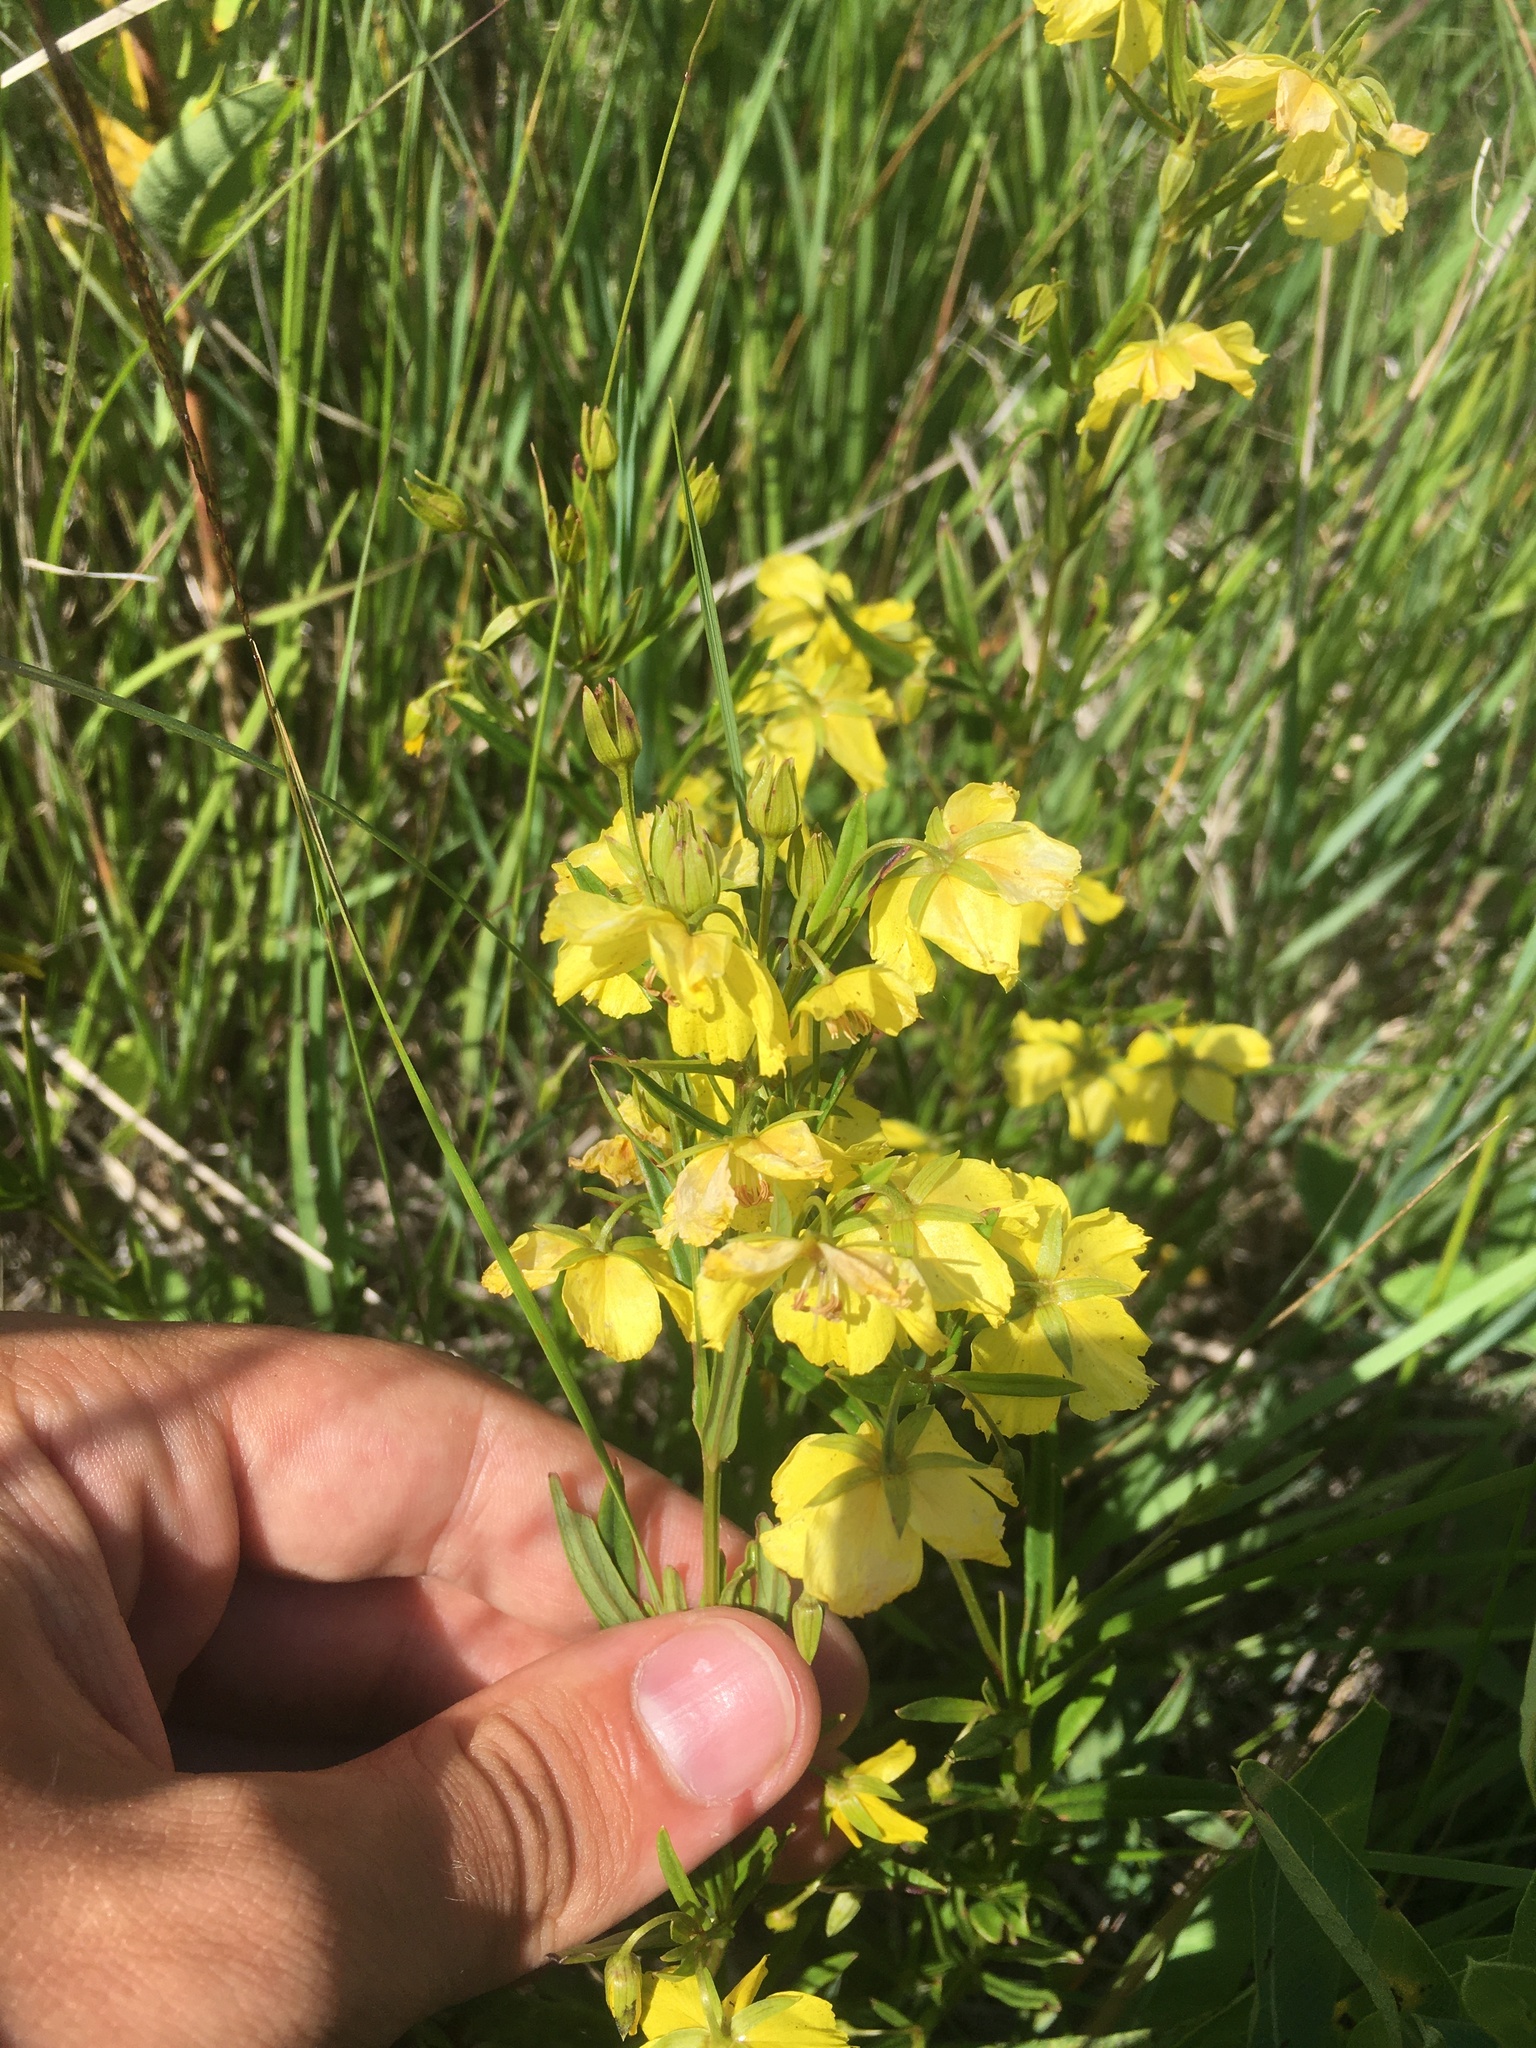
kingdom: Plantae
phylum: Tracheophyta
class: Magnoliopsida
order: Ericales
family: Primulaceae
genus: Lysimachia
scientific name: Lysimachia quadriflora
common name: Four-flowered loosestrife
